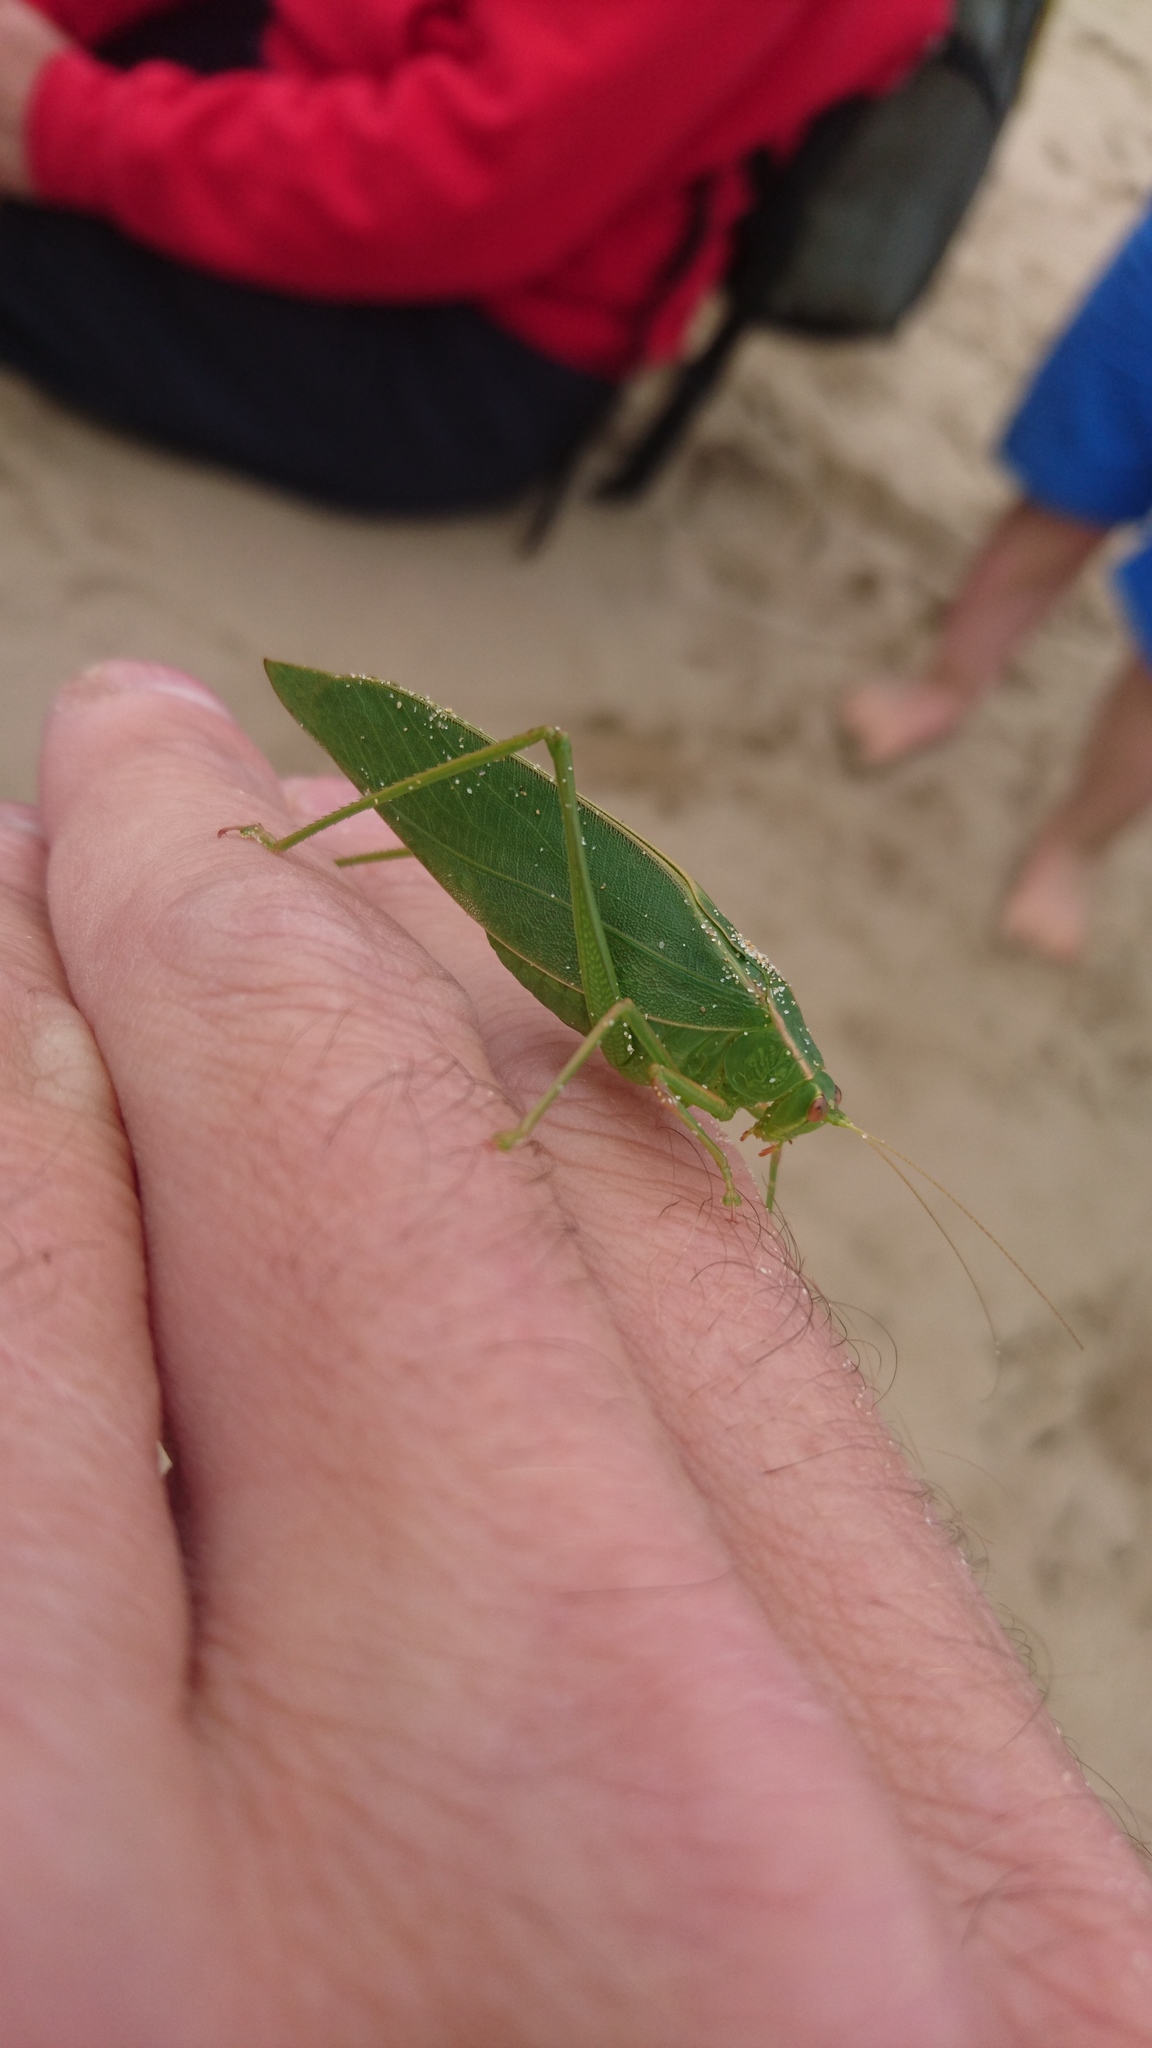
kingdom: Animalia
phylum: Arthropoda
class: Insecta
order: Orthoptera
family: Tettigoniidae
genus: Caedicia
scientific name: Caedicia simplex
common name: Common garden katydid
